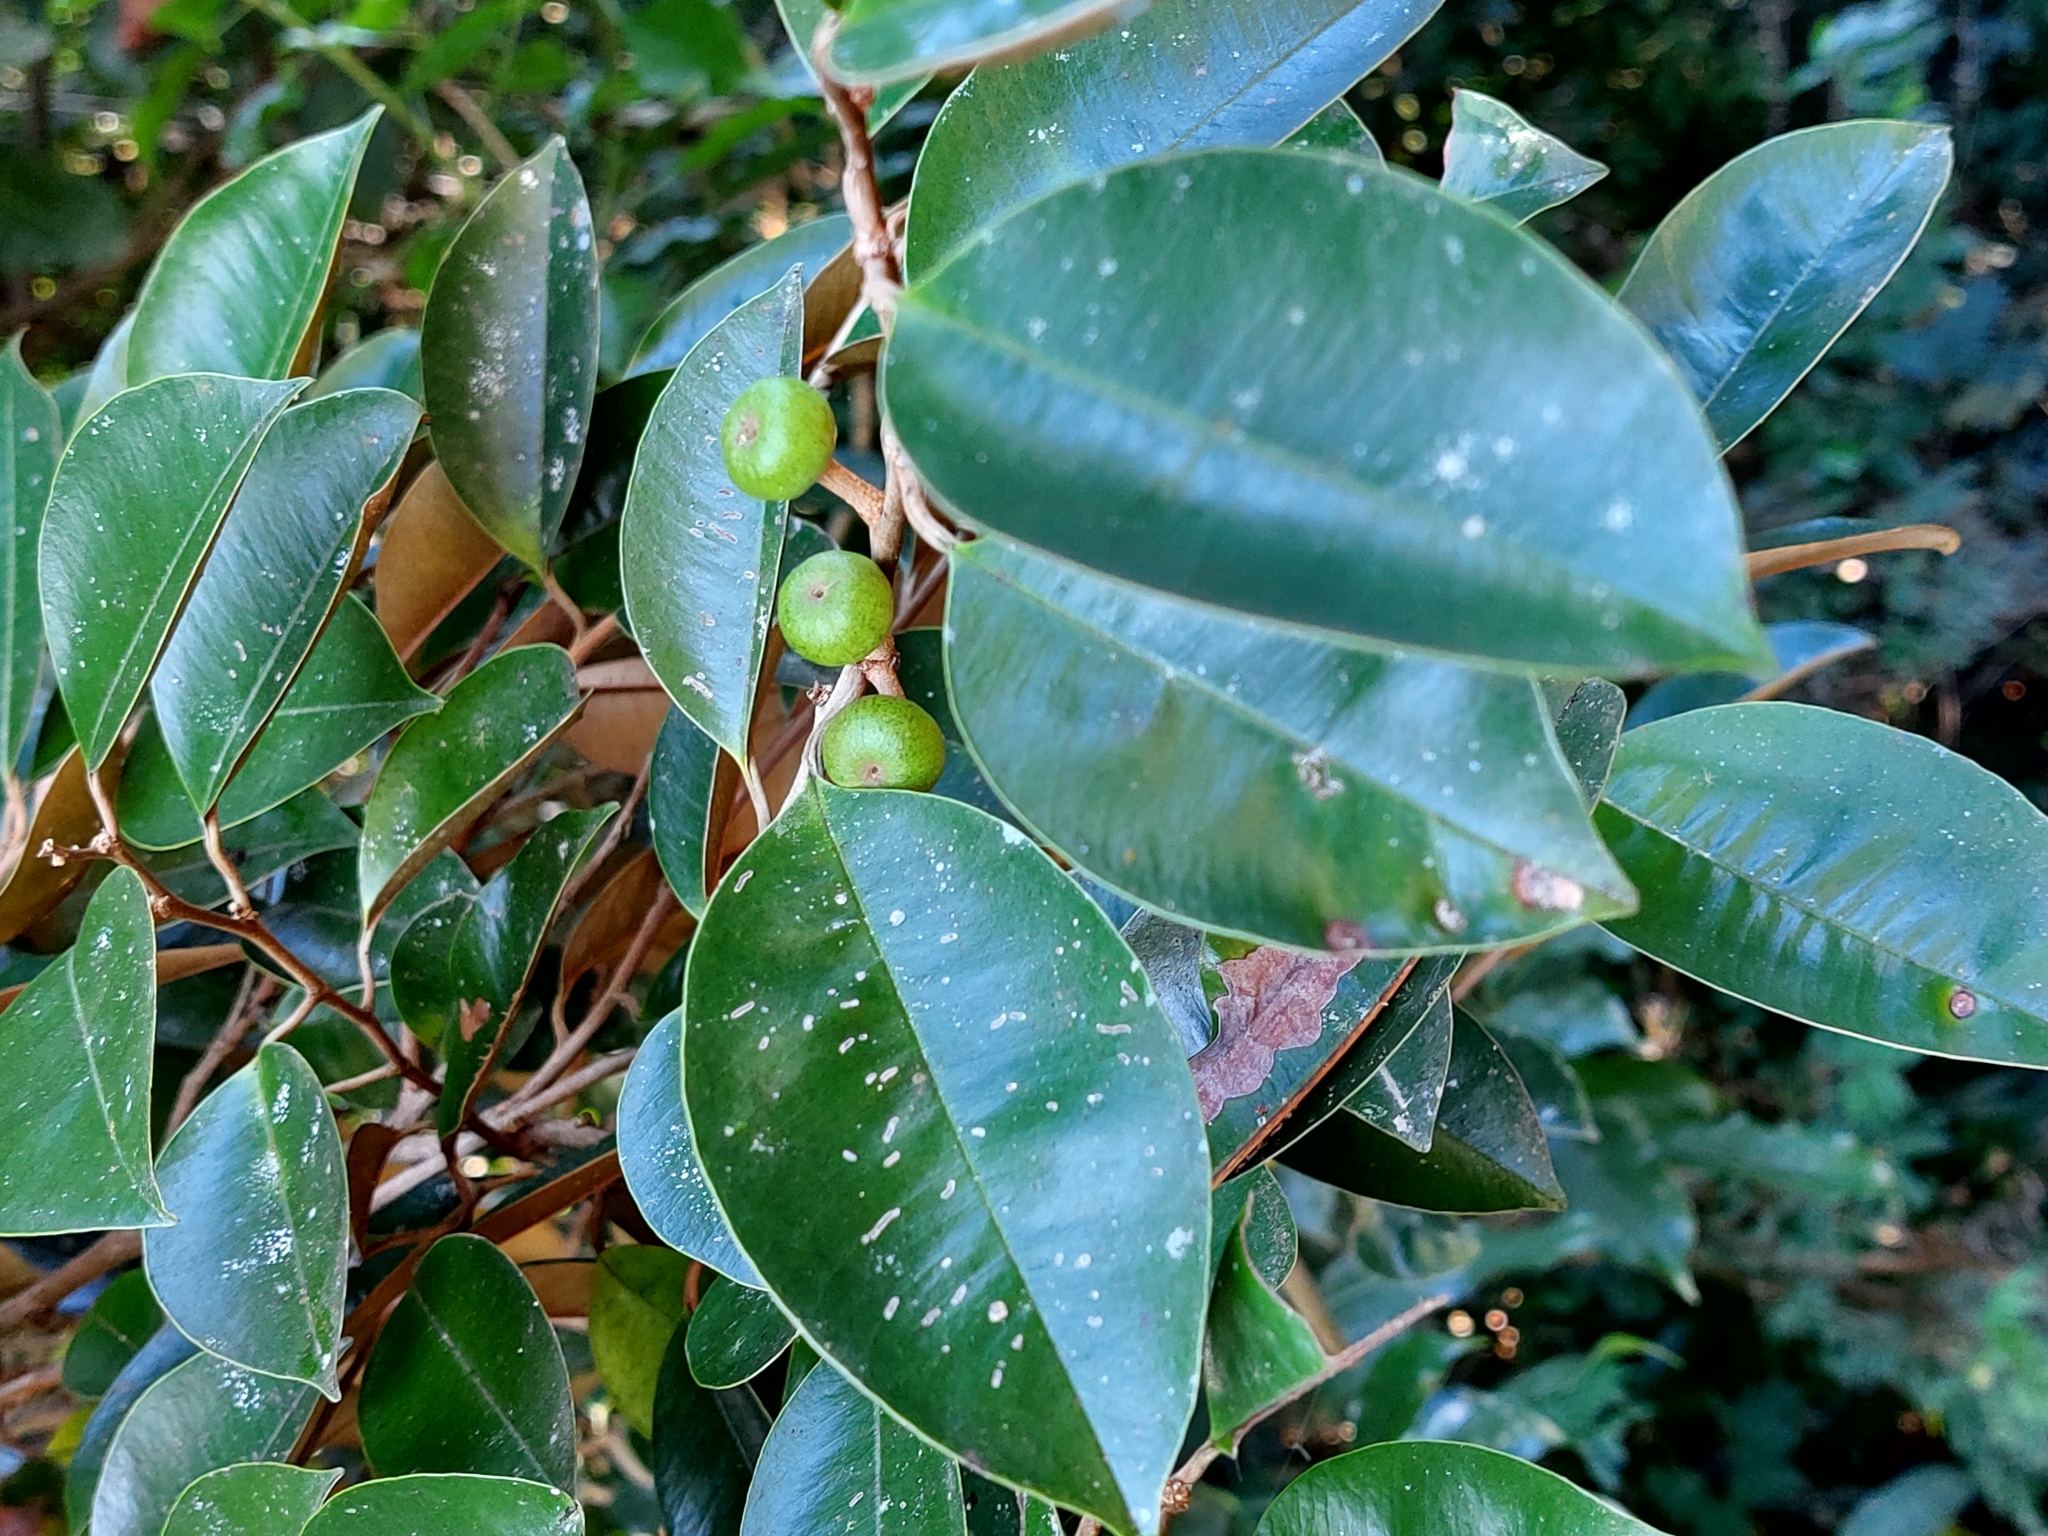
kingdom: Plantae
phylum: Tracheophyta
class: Magnoliopsida
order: Ericales
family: Sapotaceae
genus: Chrysophyllum
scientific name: Chrysophyllum cainito
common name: Star-apple
